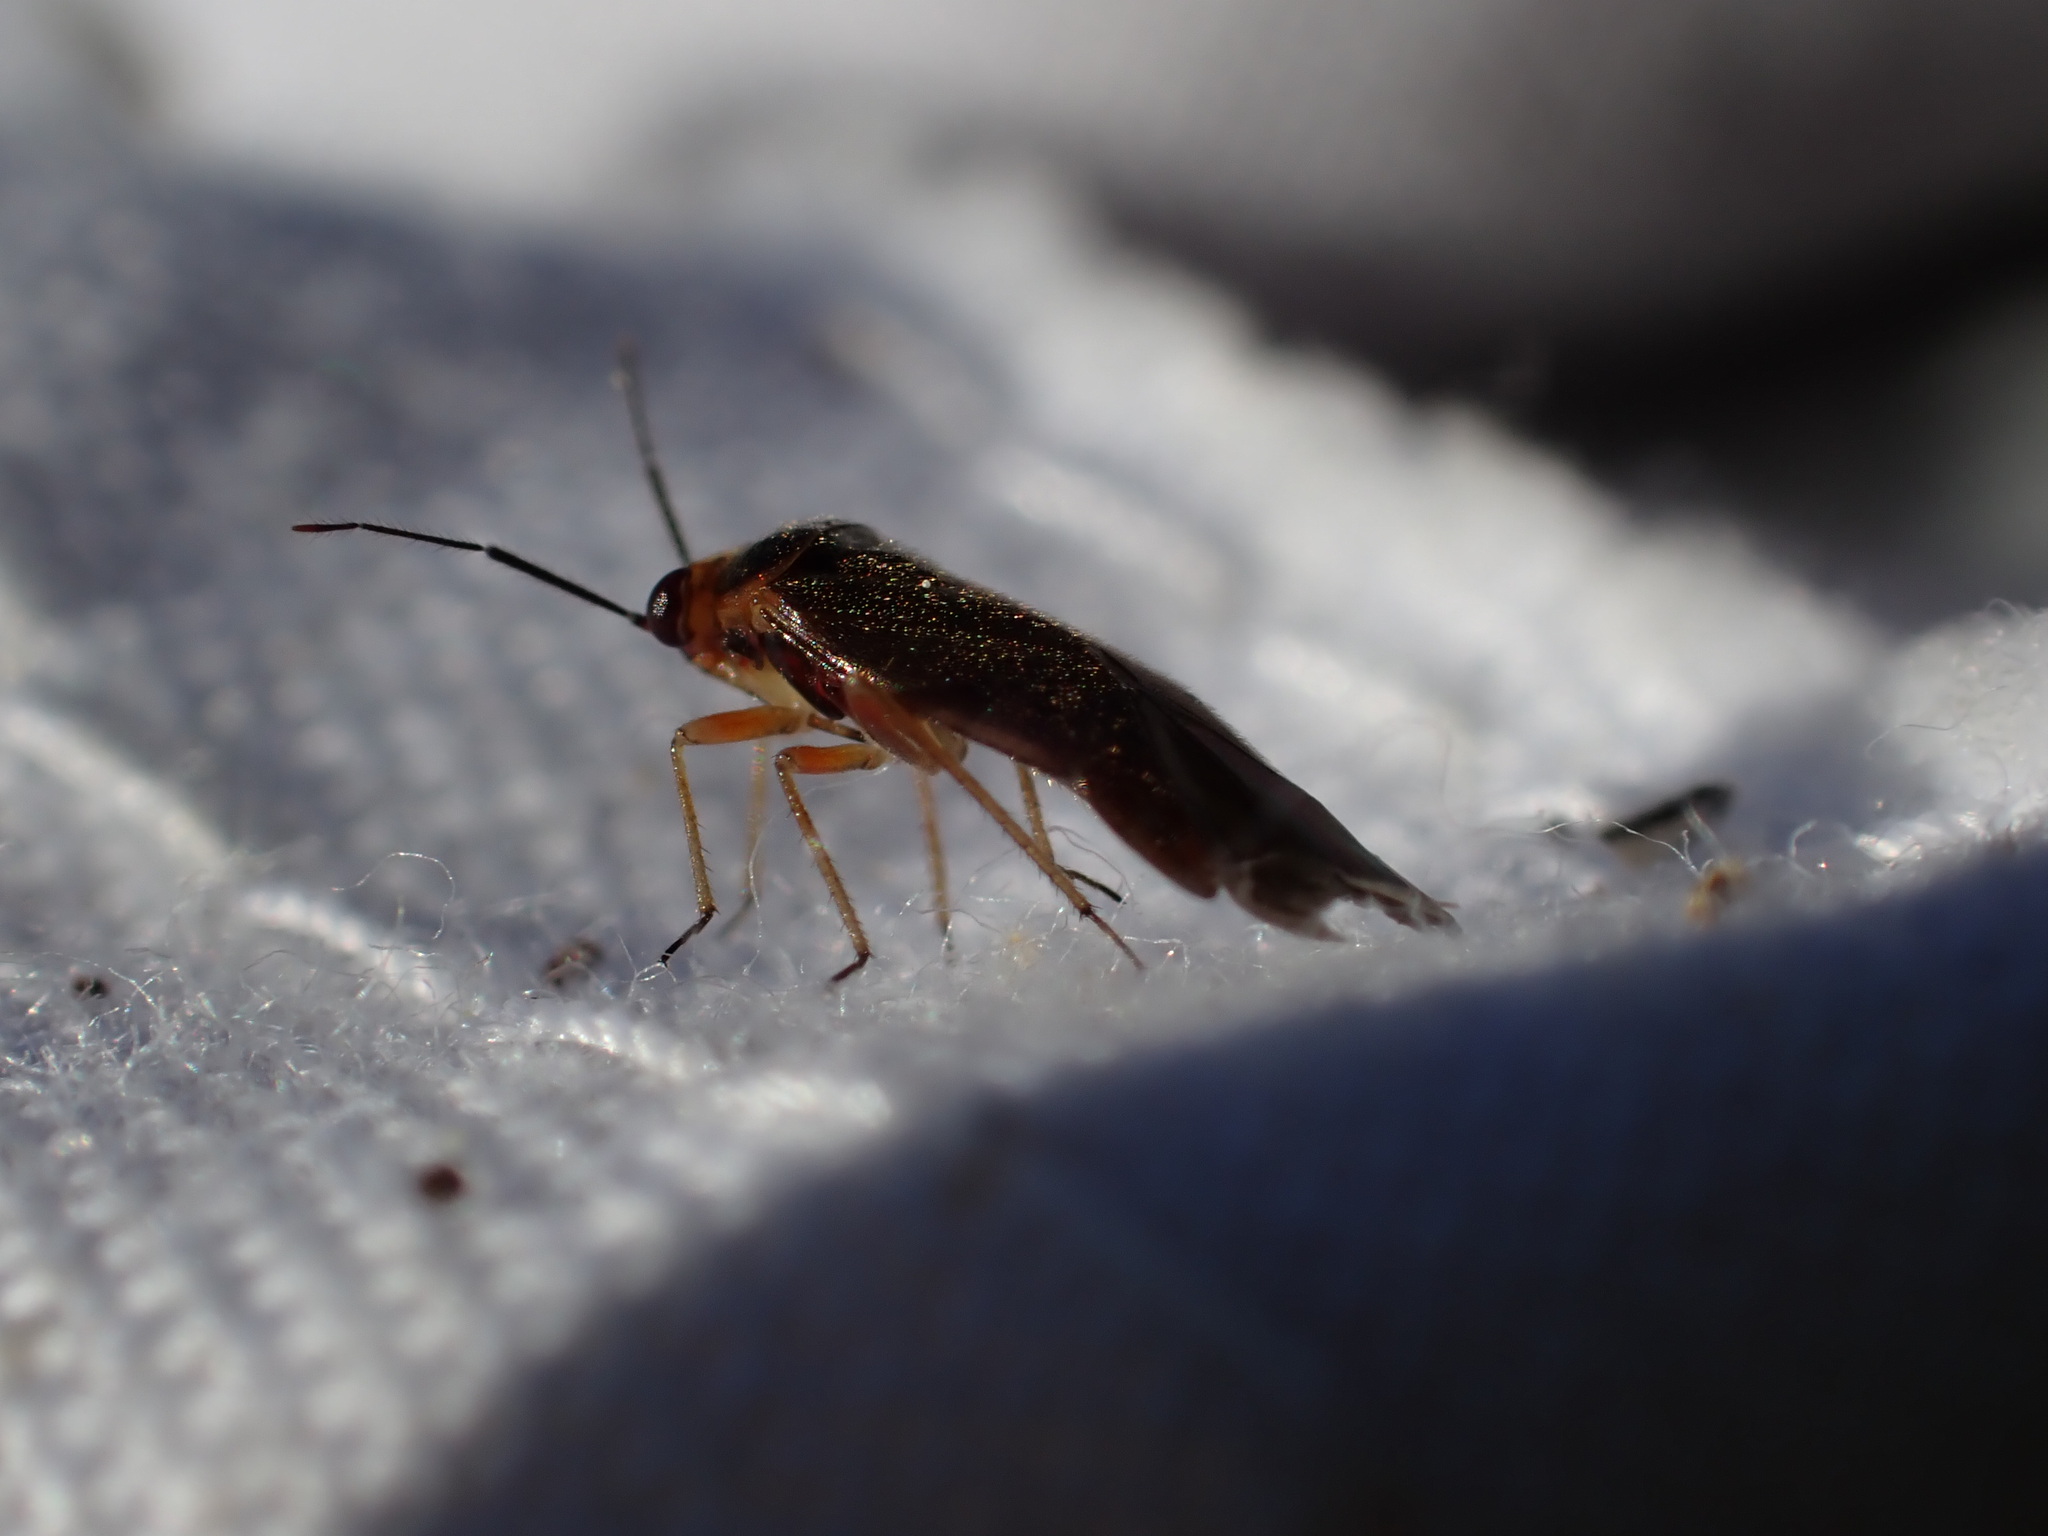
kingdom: Animalia
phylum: Arthropoda
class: Insecta
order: Hemiptera
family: Miridae
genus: Strongylocoris
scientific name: Strongylocoris cicadifrons
